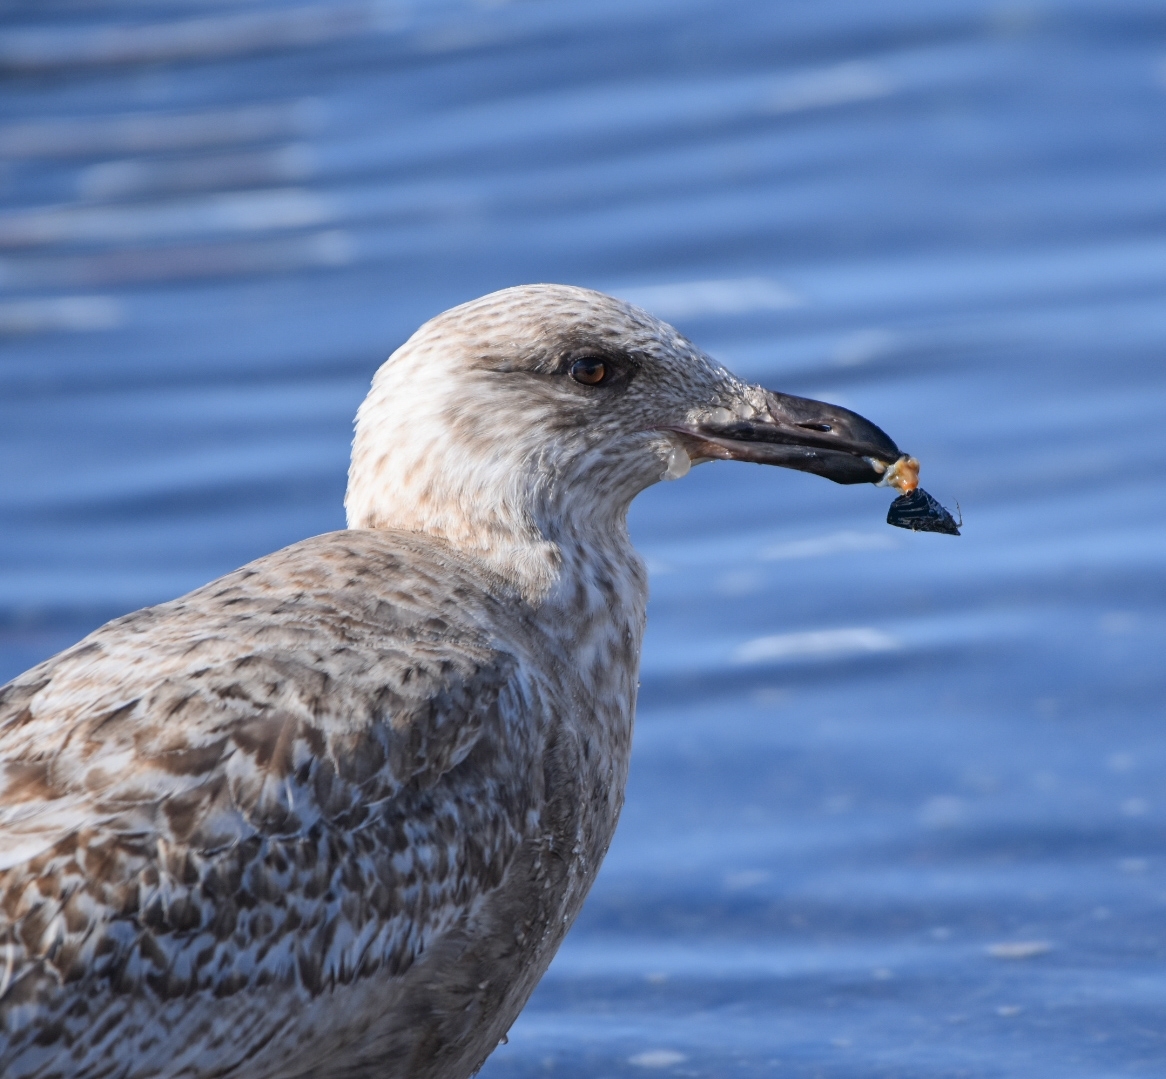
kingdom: Animalia
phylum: Chordata
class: Aves
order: Charadriiformes
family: Laridae
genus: Larus
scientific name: Larus schistisagus
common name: Slaty-backed gull
